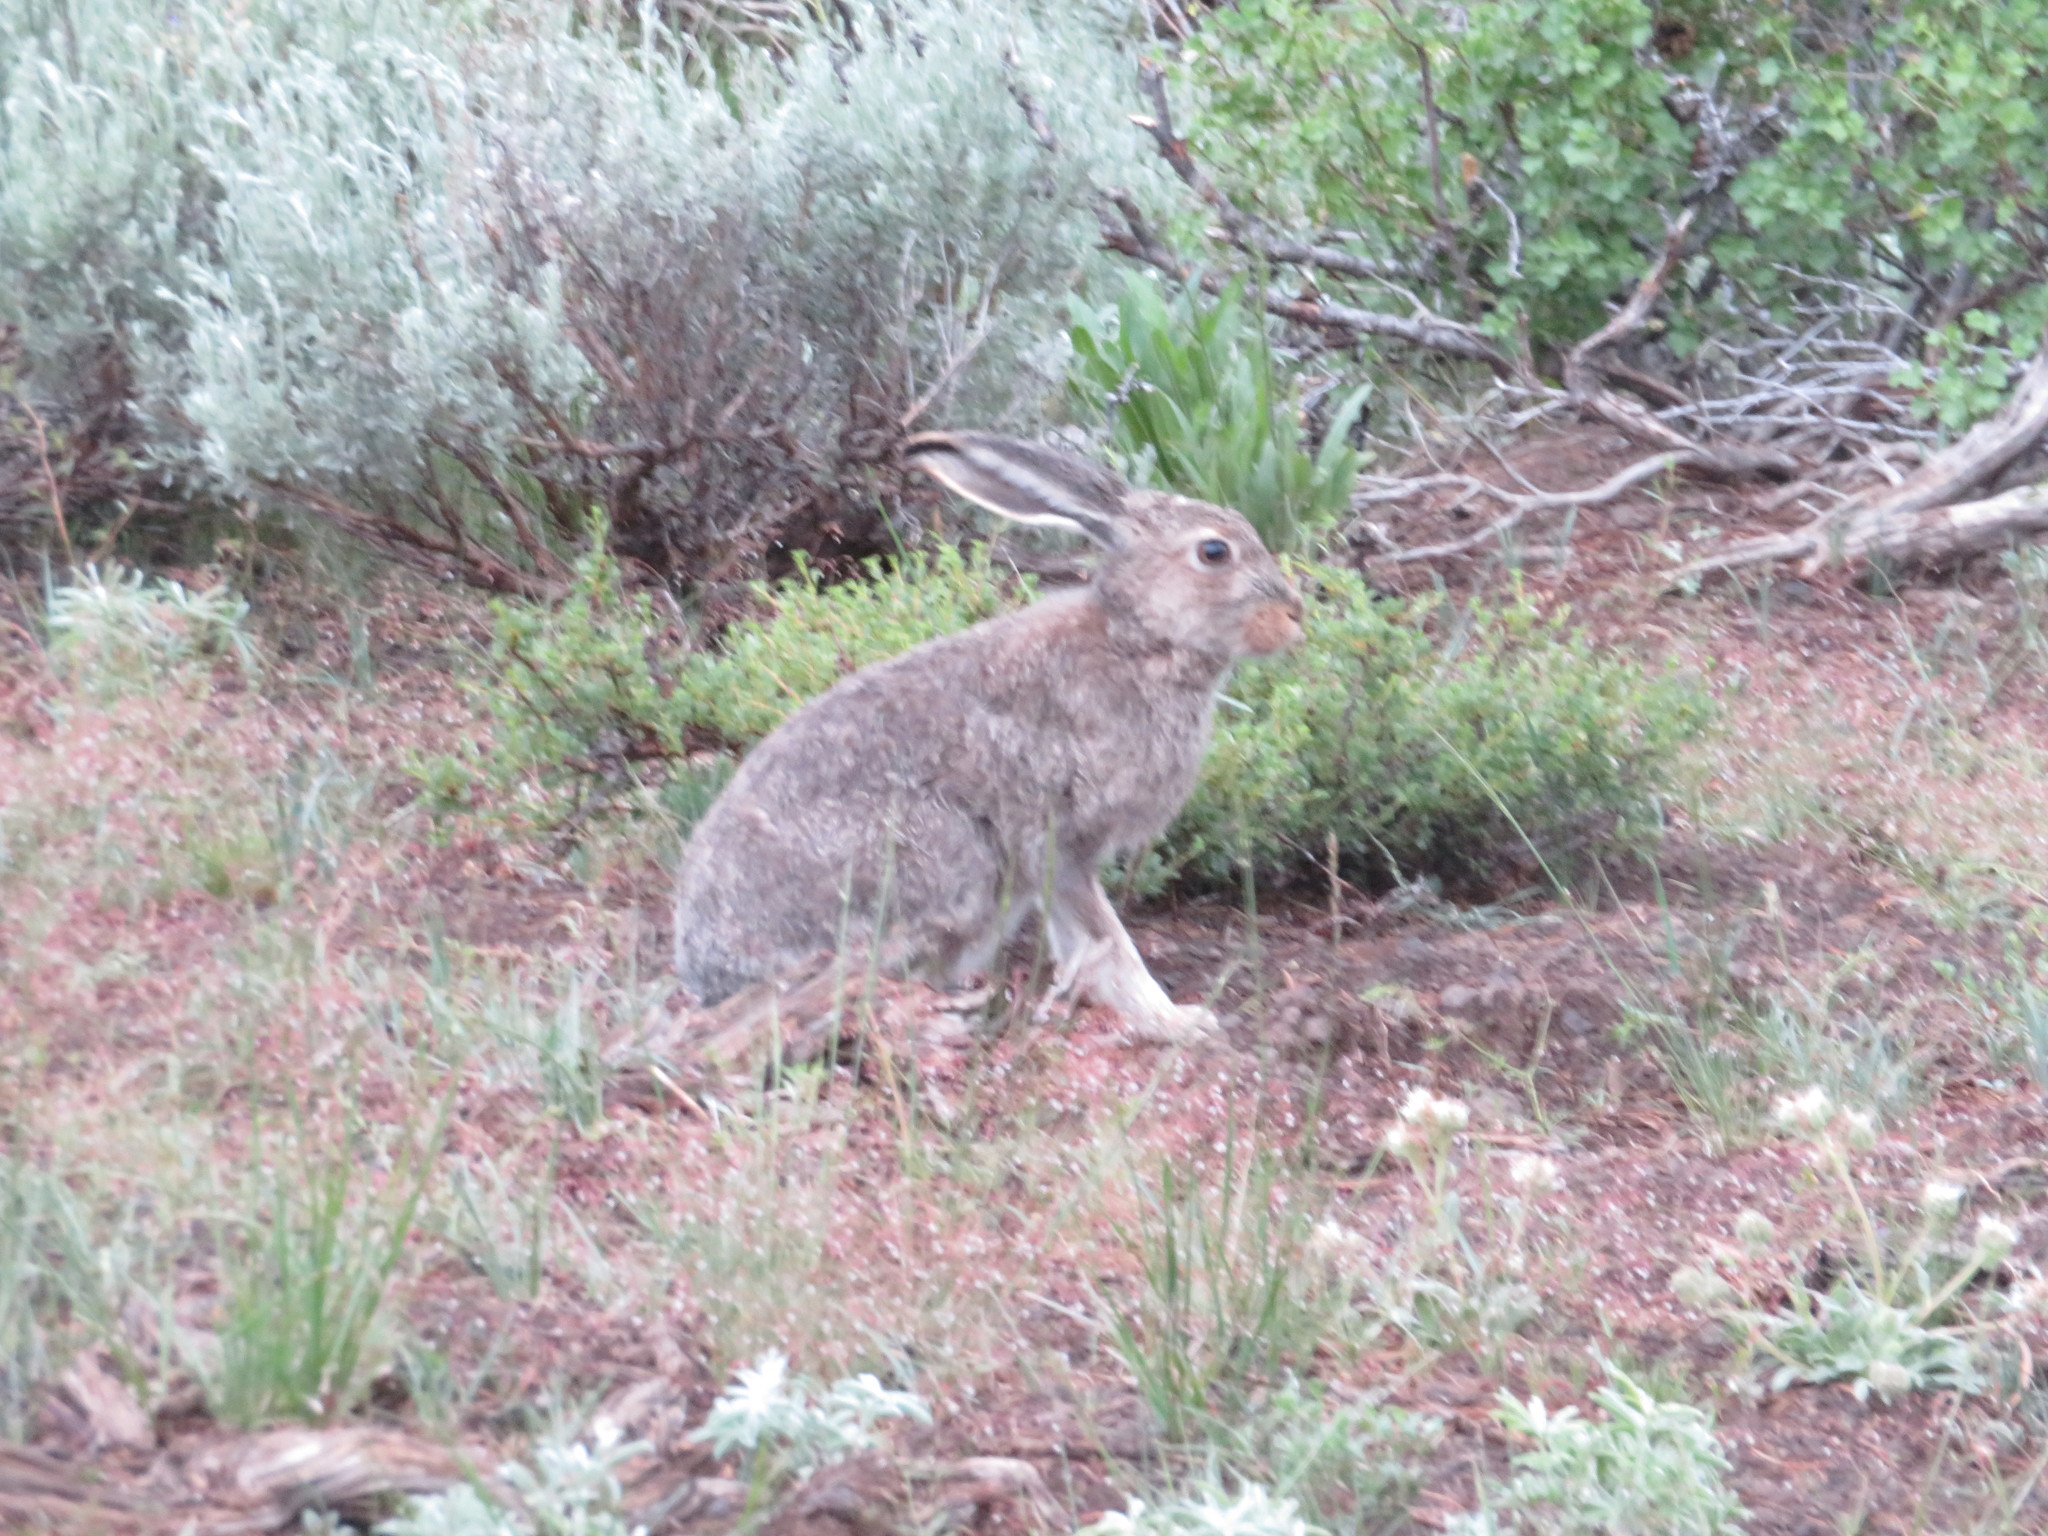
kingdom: Animalia
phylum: Chordata
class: Mammalia
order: Lagomorpha
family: Leporidae
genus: Lepus
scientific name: Lepus townsendii
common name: White-tailed jackrabbit
